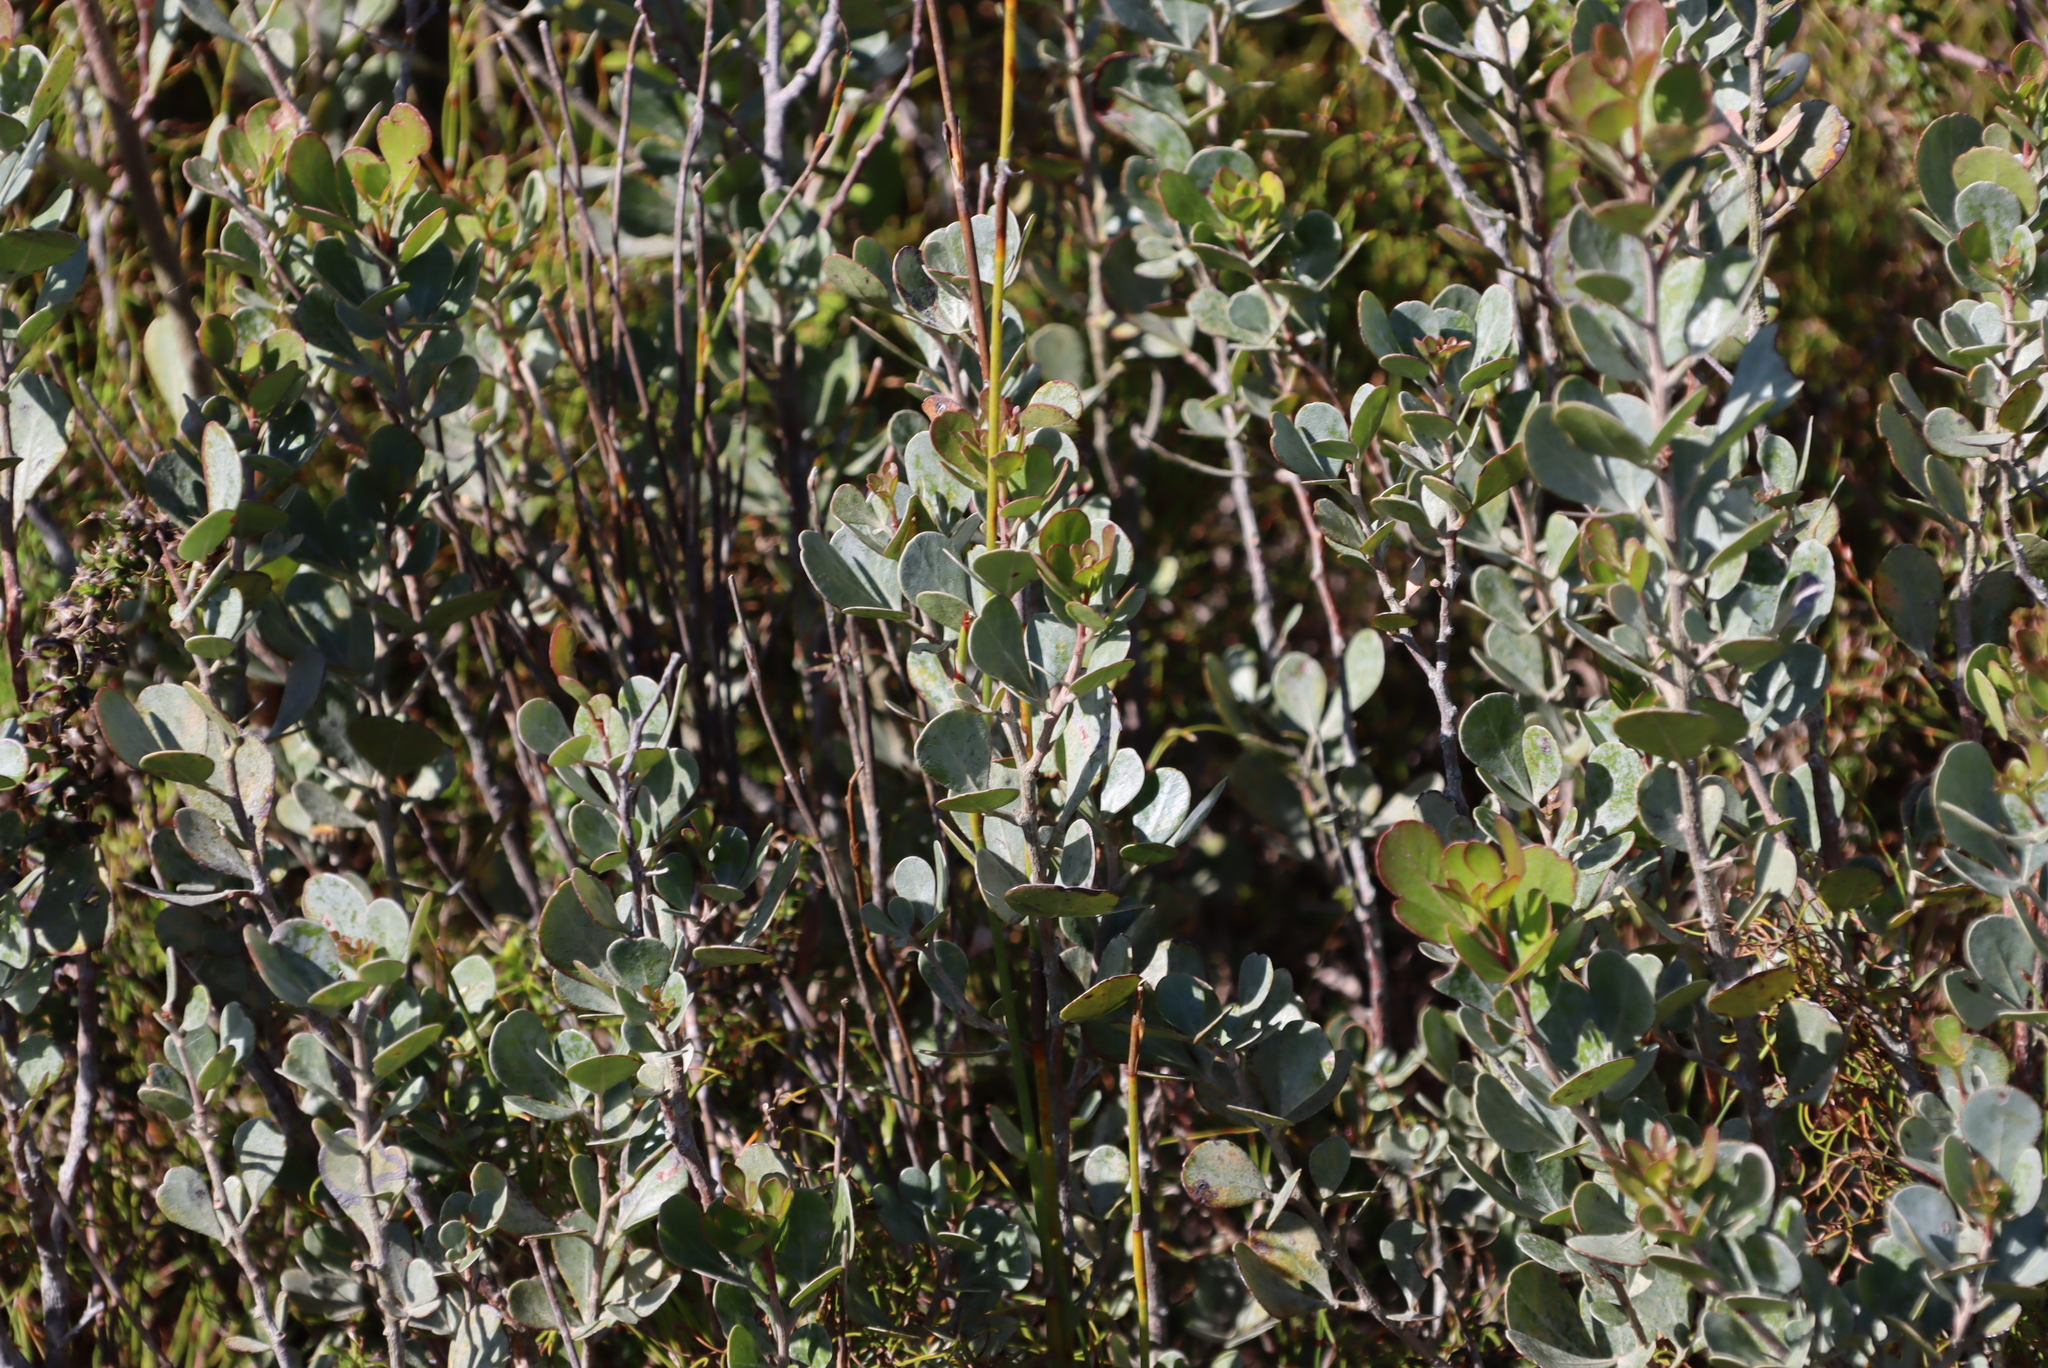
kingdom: Plantae
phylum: Tracheophyta
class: Magnoliopsida
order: Sapindales
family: Anacardiaceae
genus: Searsia
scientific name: Searsia lucida
